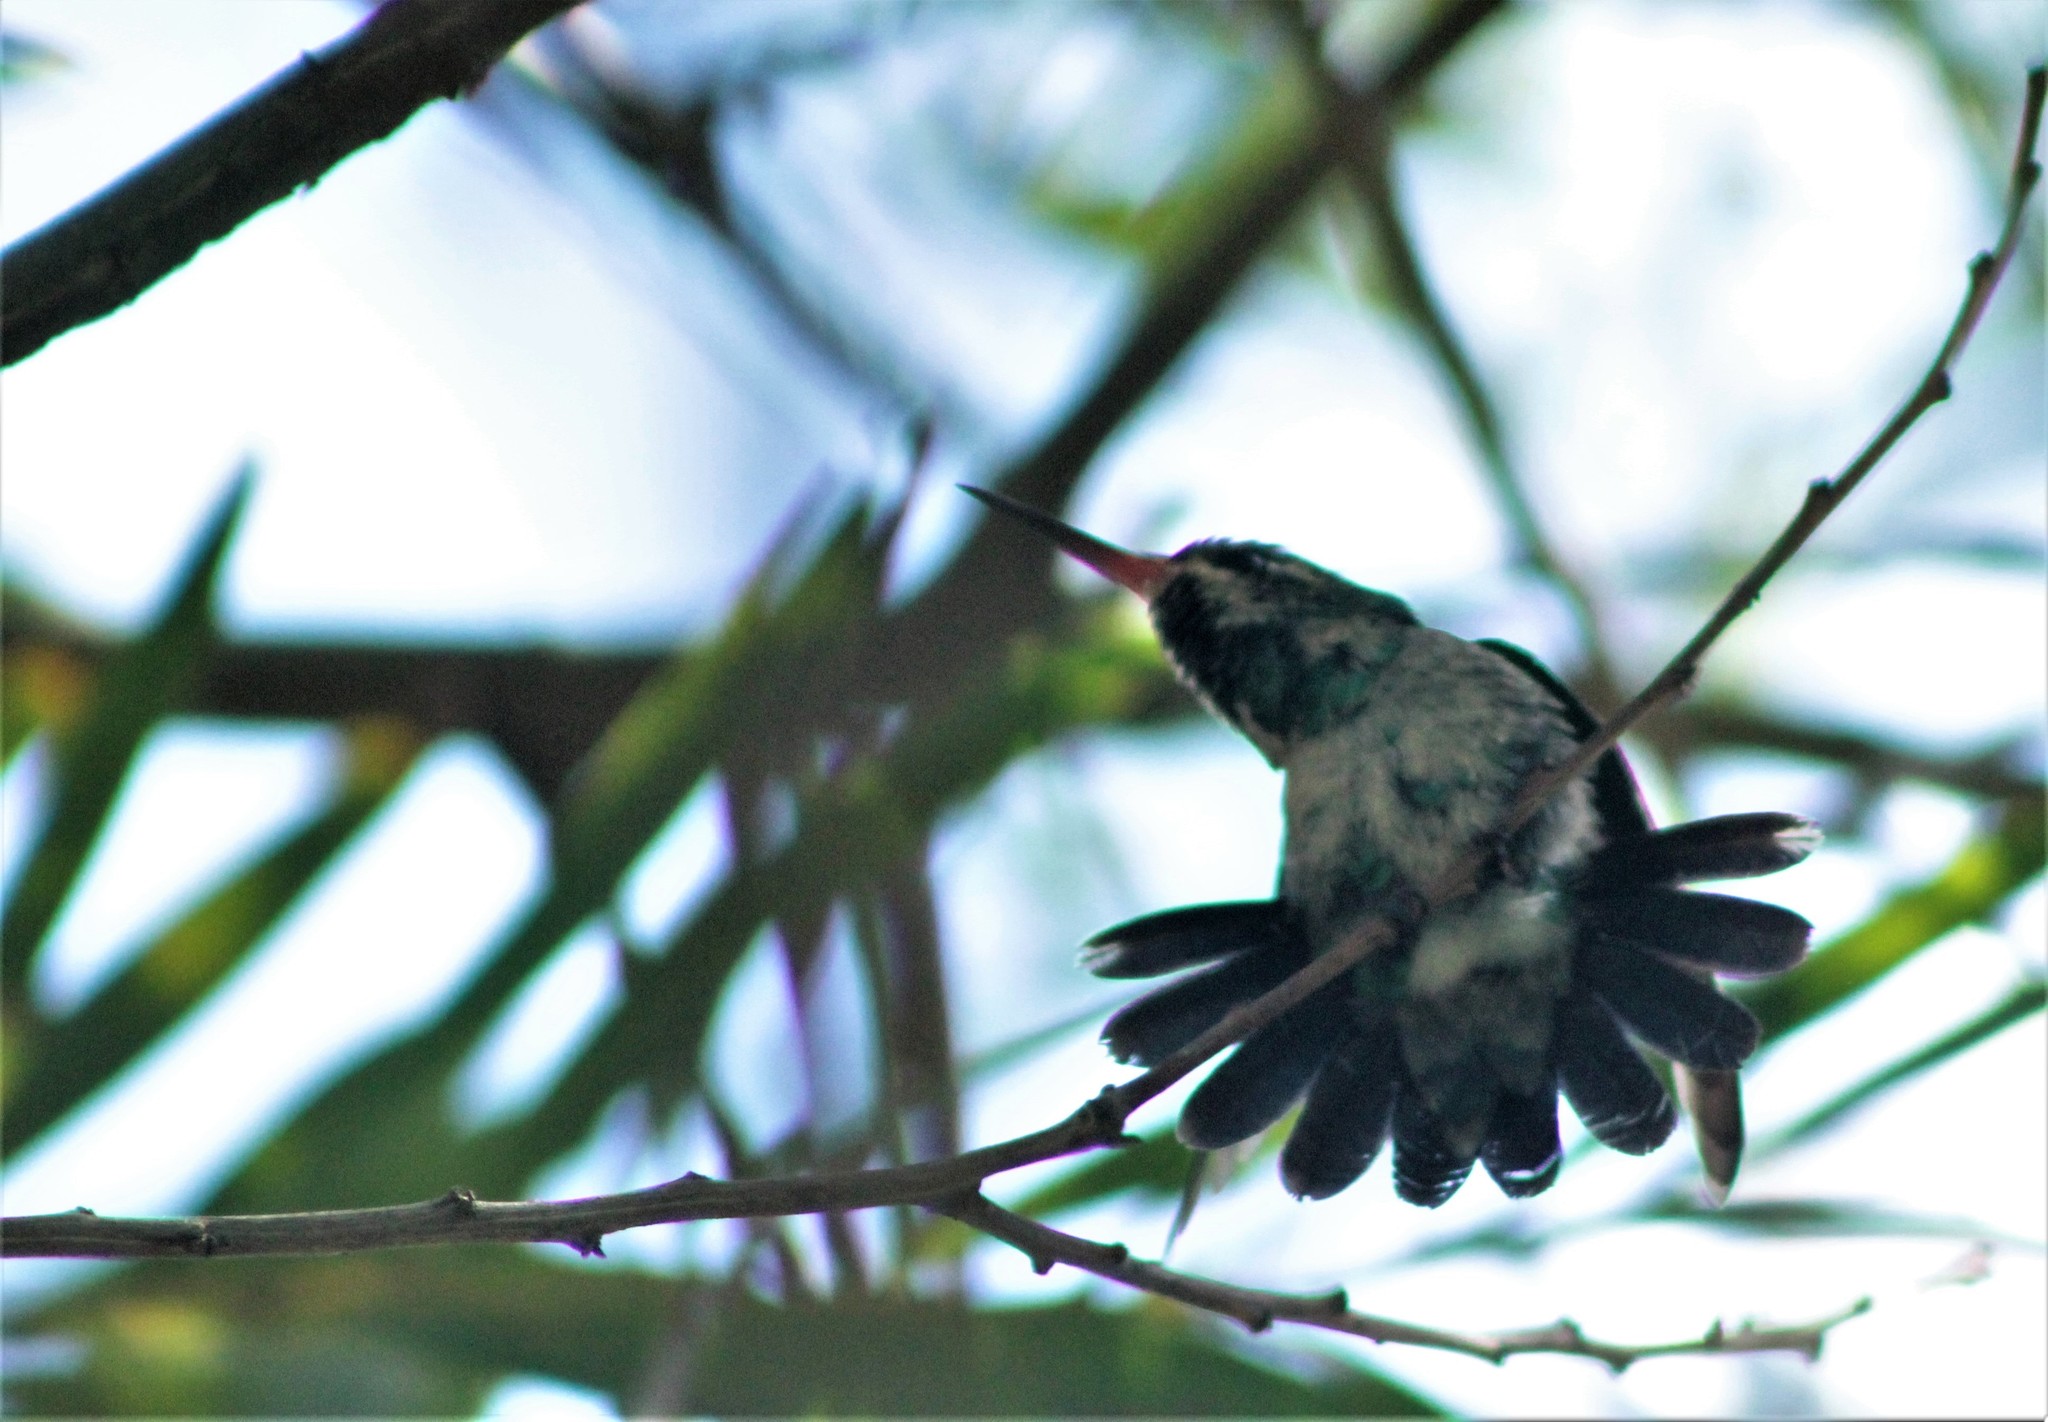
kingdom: Animalia
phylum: Chordata
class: Aves
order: Apodiformes
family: Trochilidae
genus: Chlorostilbon
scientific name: Chlorostilbon lucidus
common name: Glittering-bellied emerald
